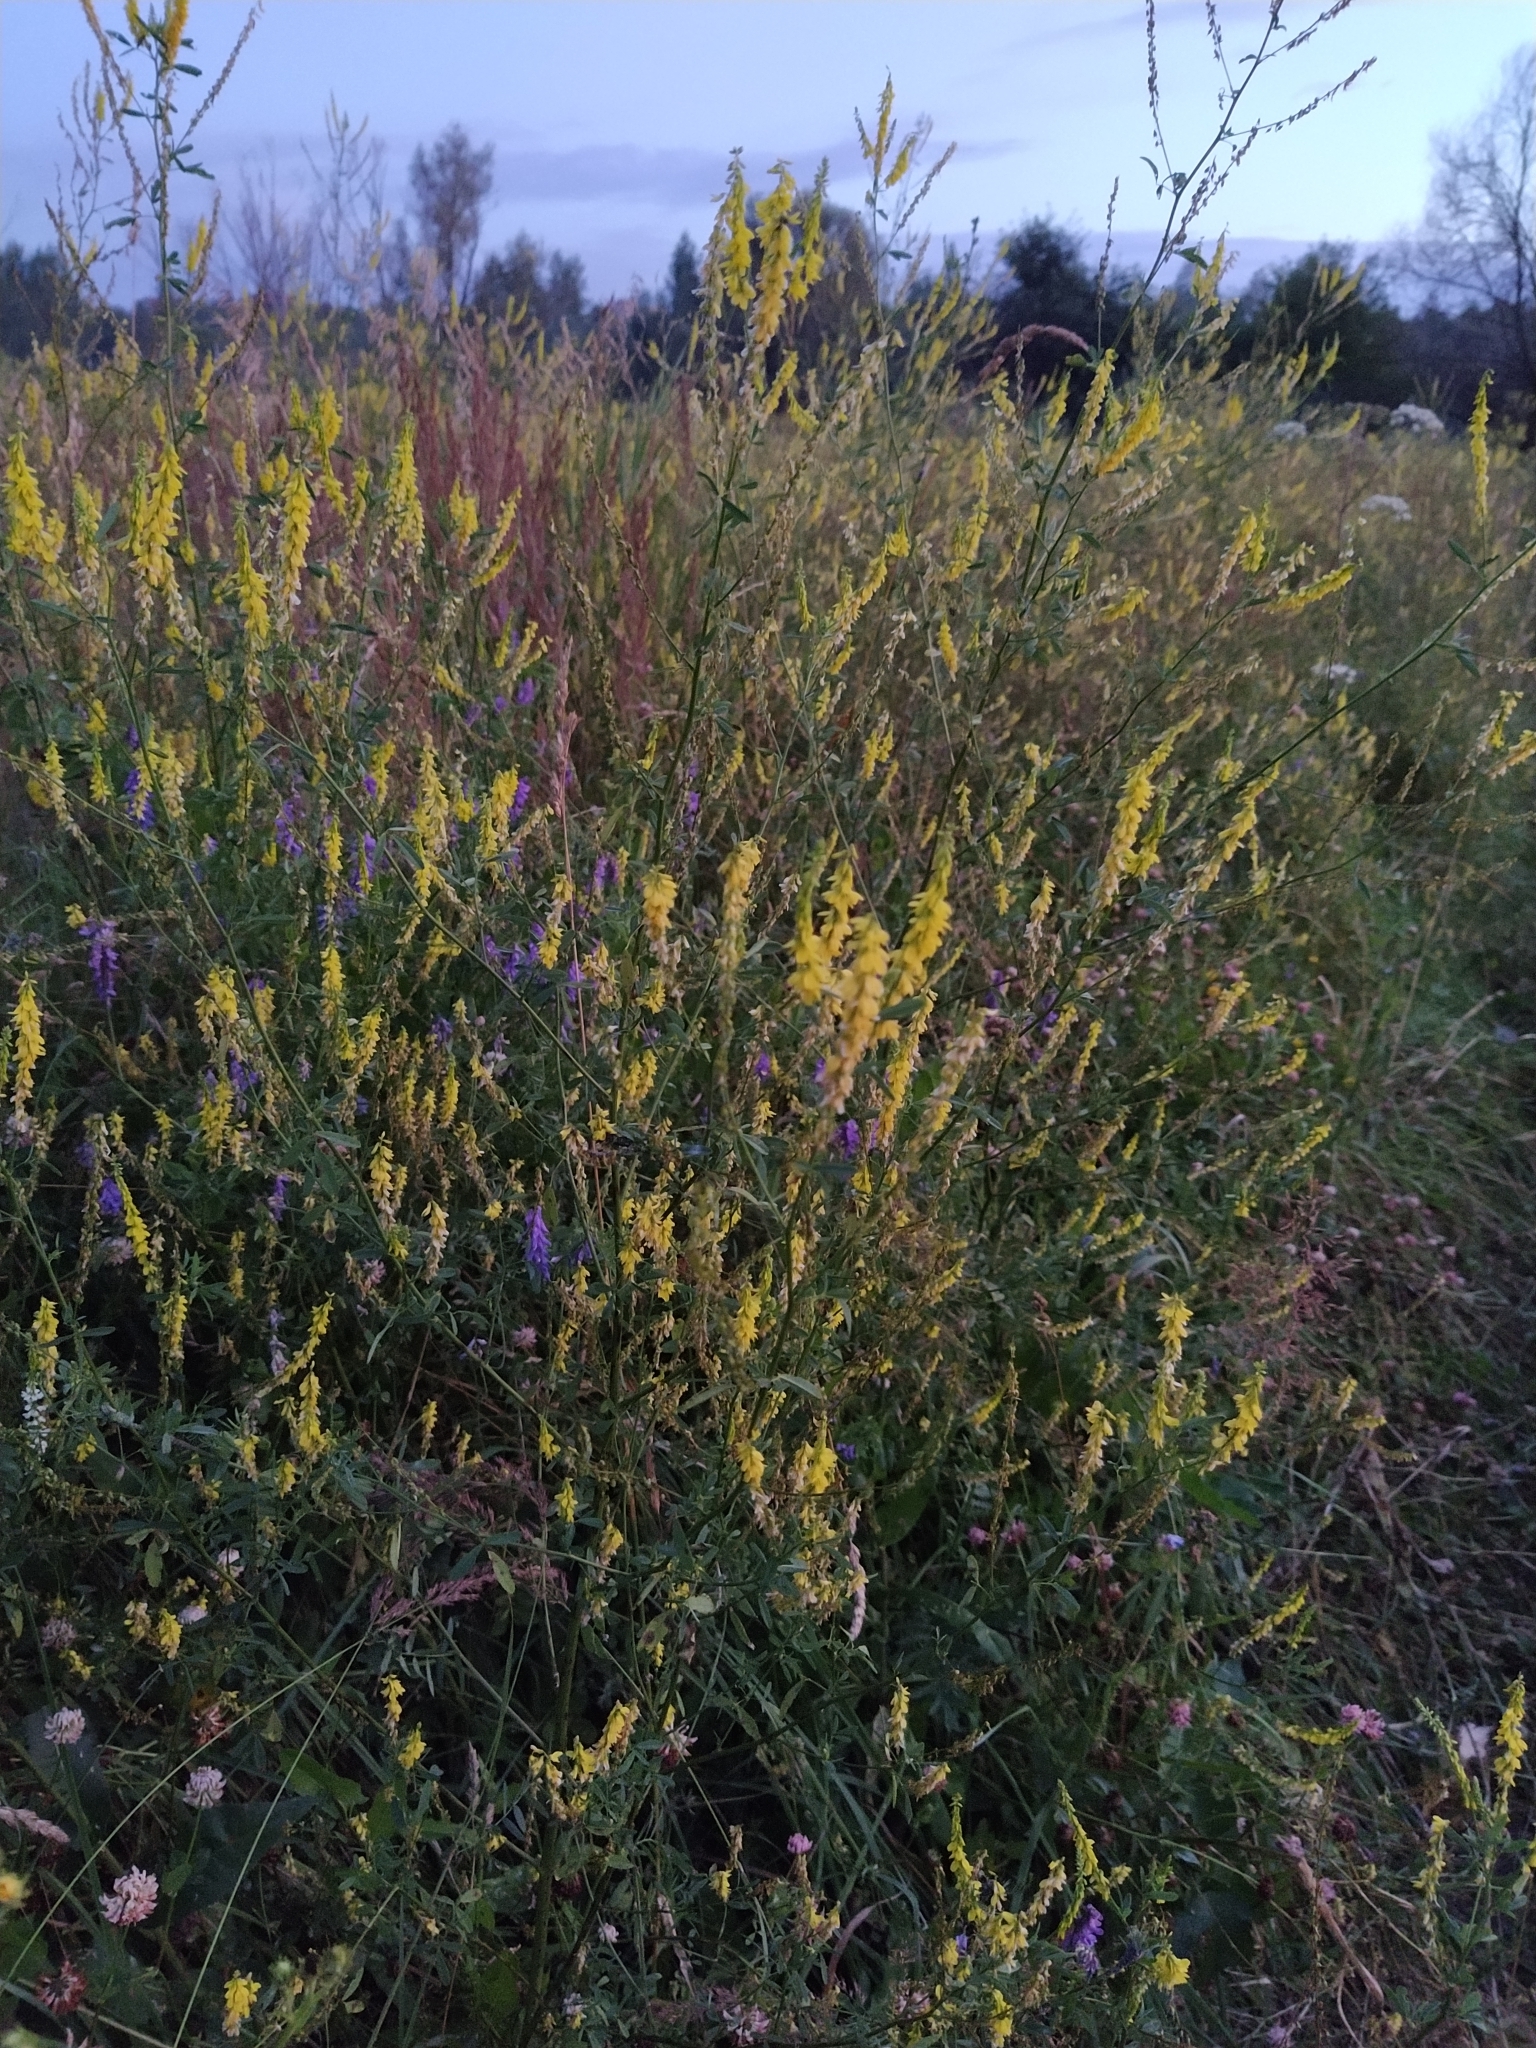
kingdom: Plantae
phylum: Tracheophyta
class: Magnoliopsida
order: Fabales
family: Fabaceae
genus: Melilotus
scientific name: Melilotus officinalis
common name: Sweetclover
